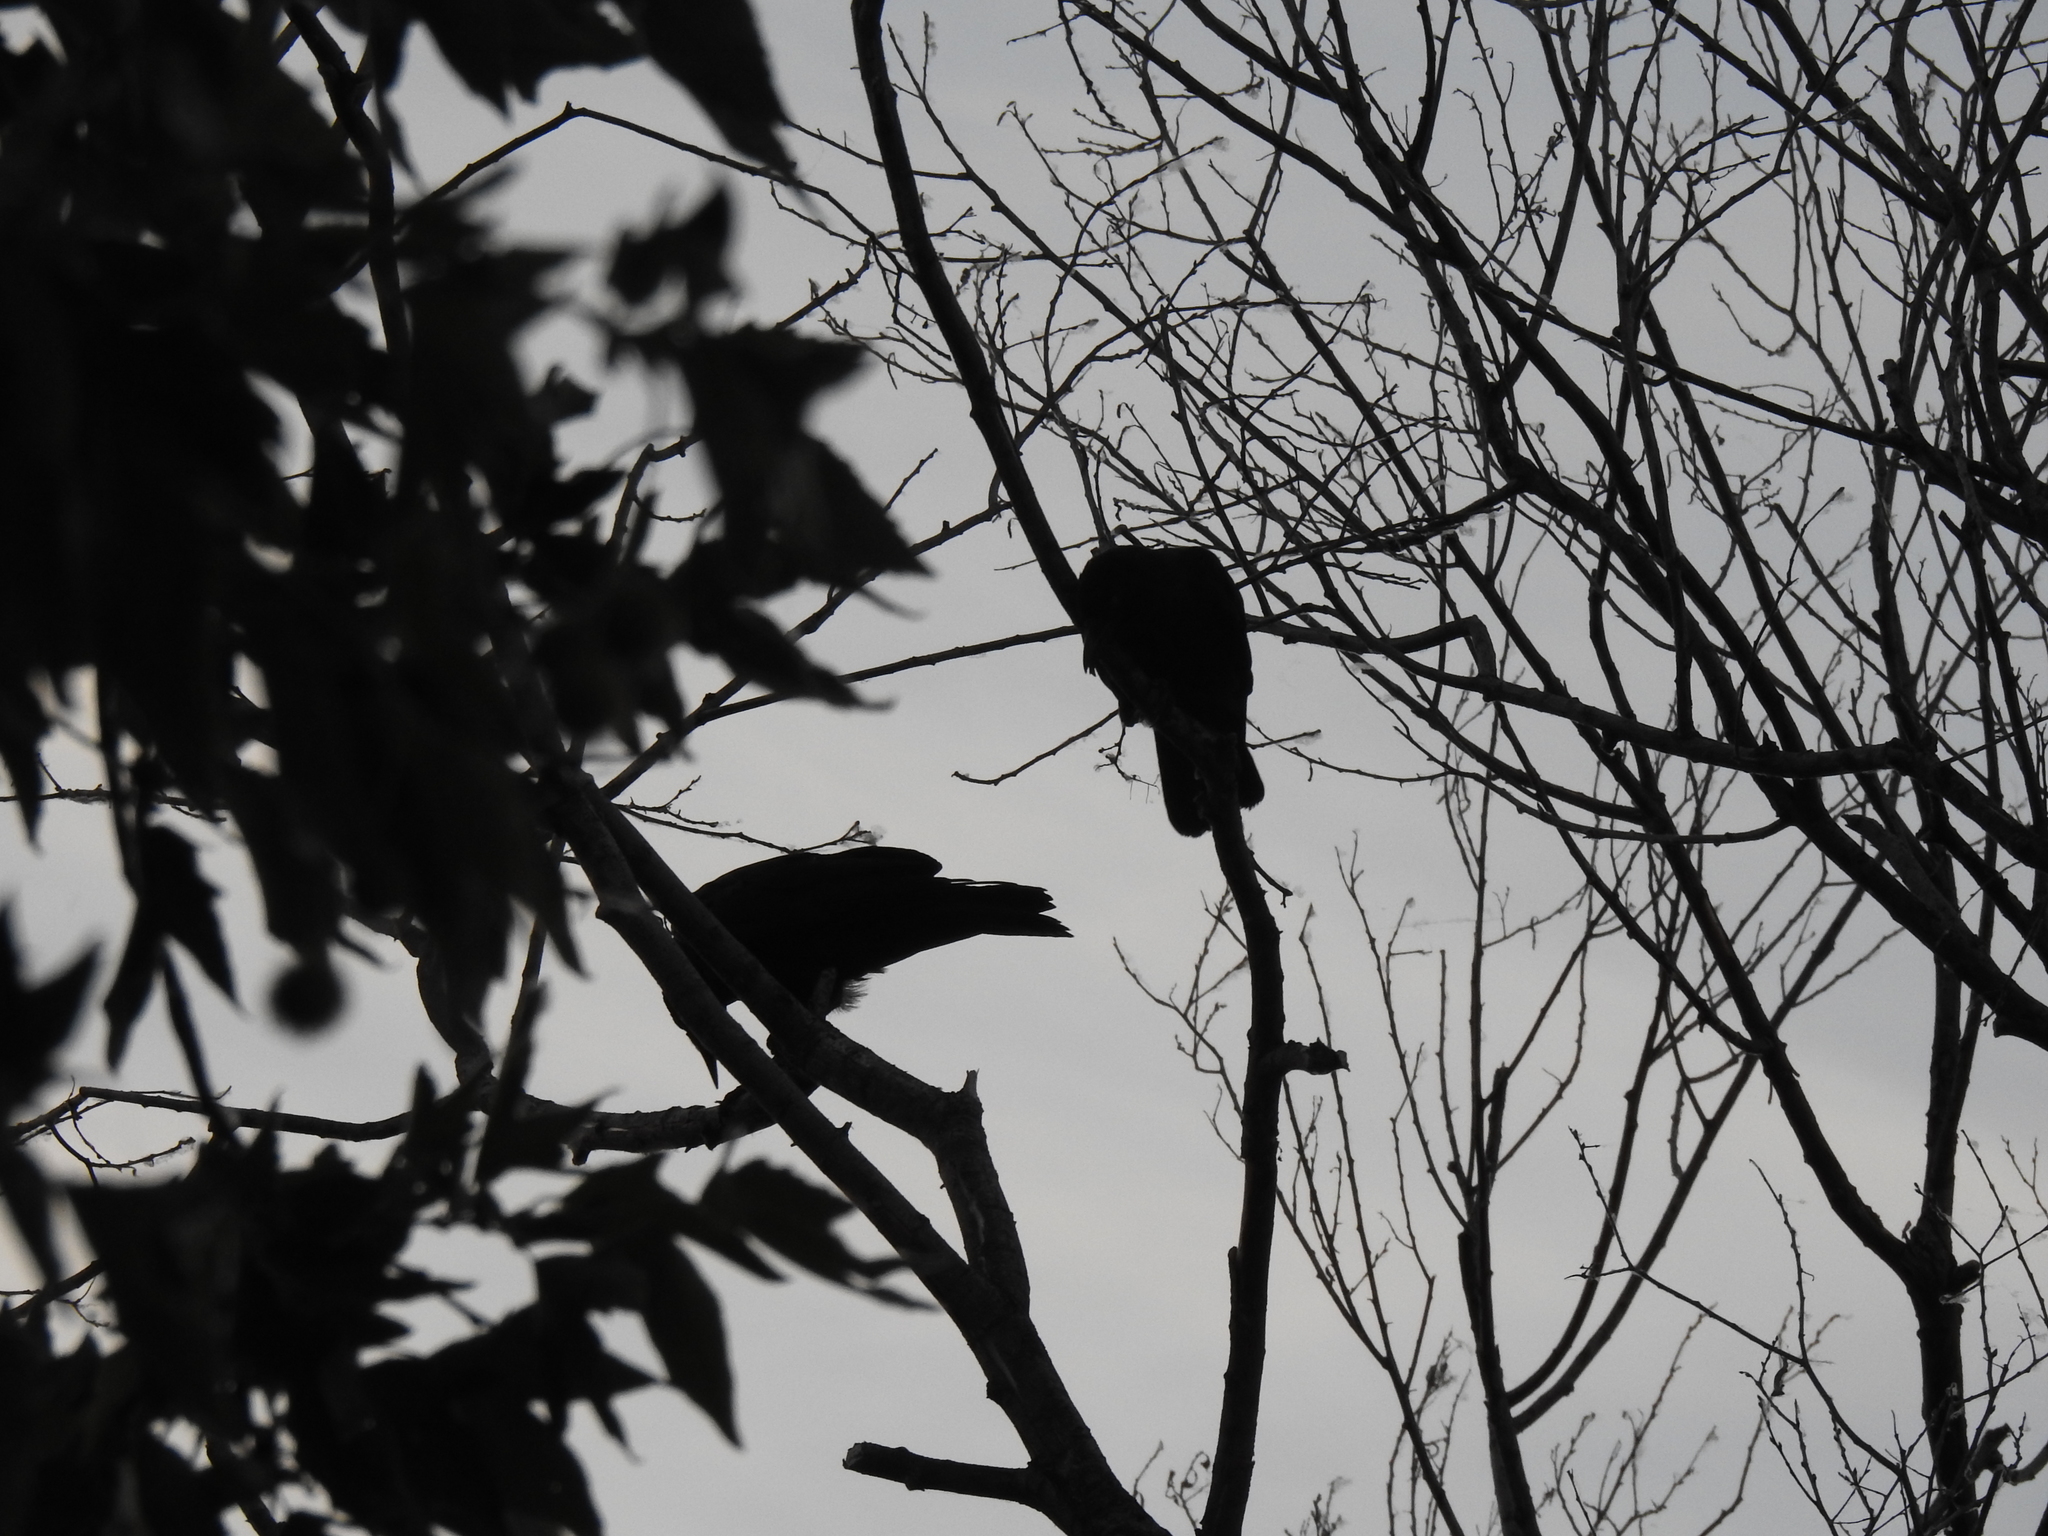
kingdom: Animalia
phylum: Chordata
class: Aves
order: Passeriformes
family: Corvidae
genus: Corvus
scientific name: Corvus brachyrhynchos
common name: American crow
